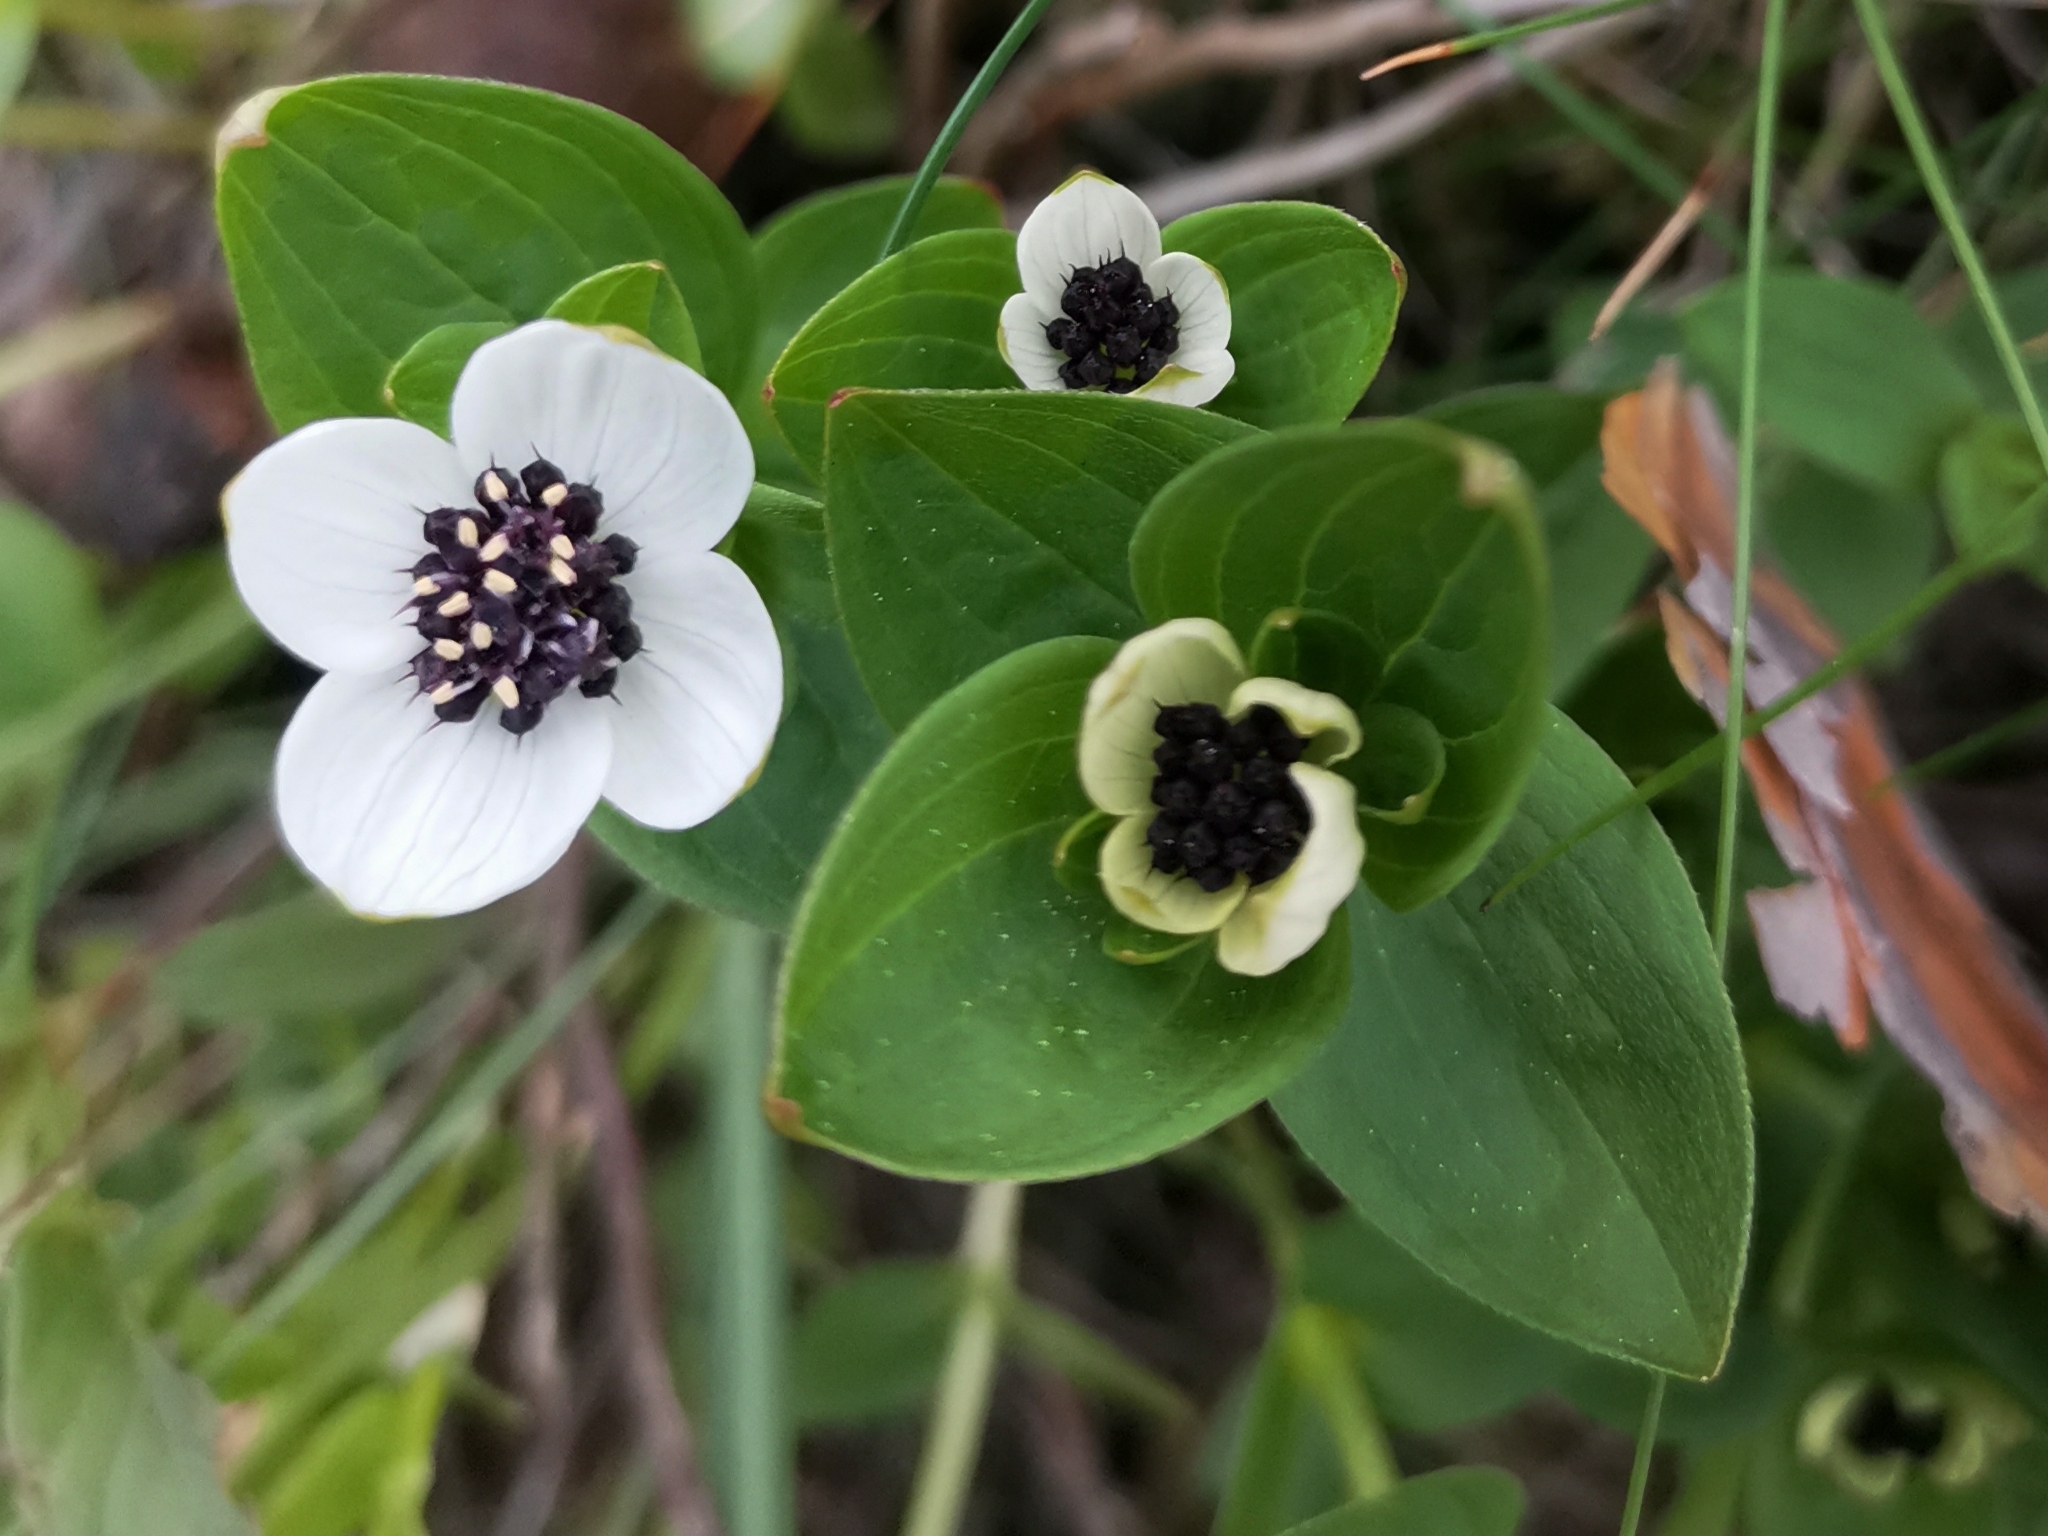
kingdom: Plantae
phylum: Tracheophyta
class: Magnoliopsida
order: Cornales
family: Cornaceae
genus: Cornus
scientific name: Cornus suecica
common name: Dwarf cornel
